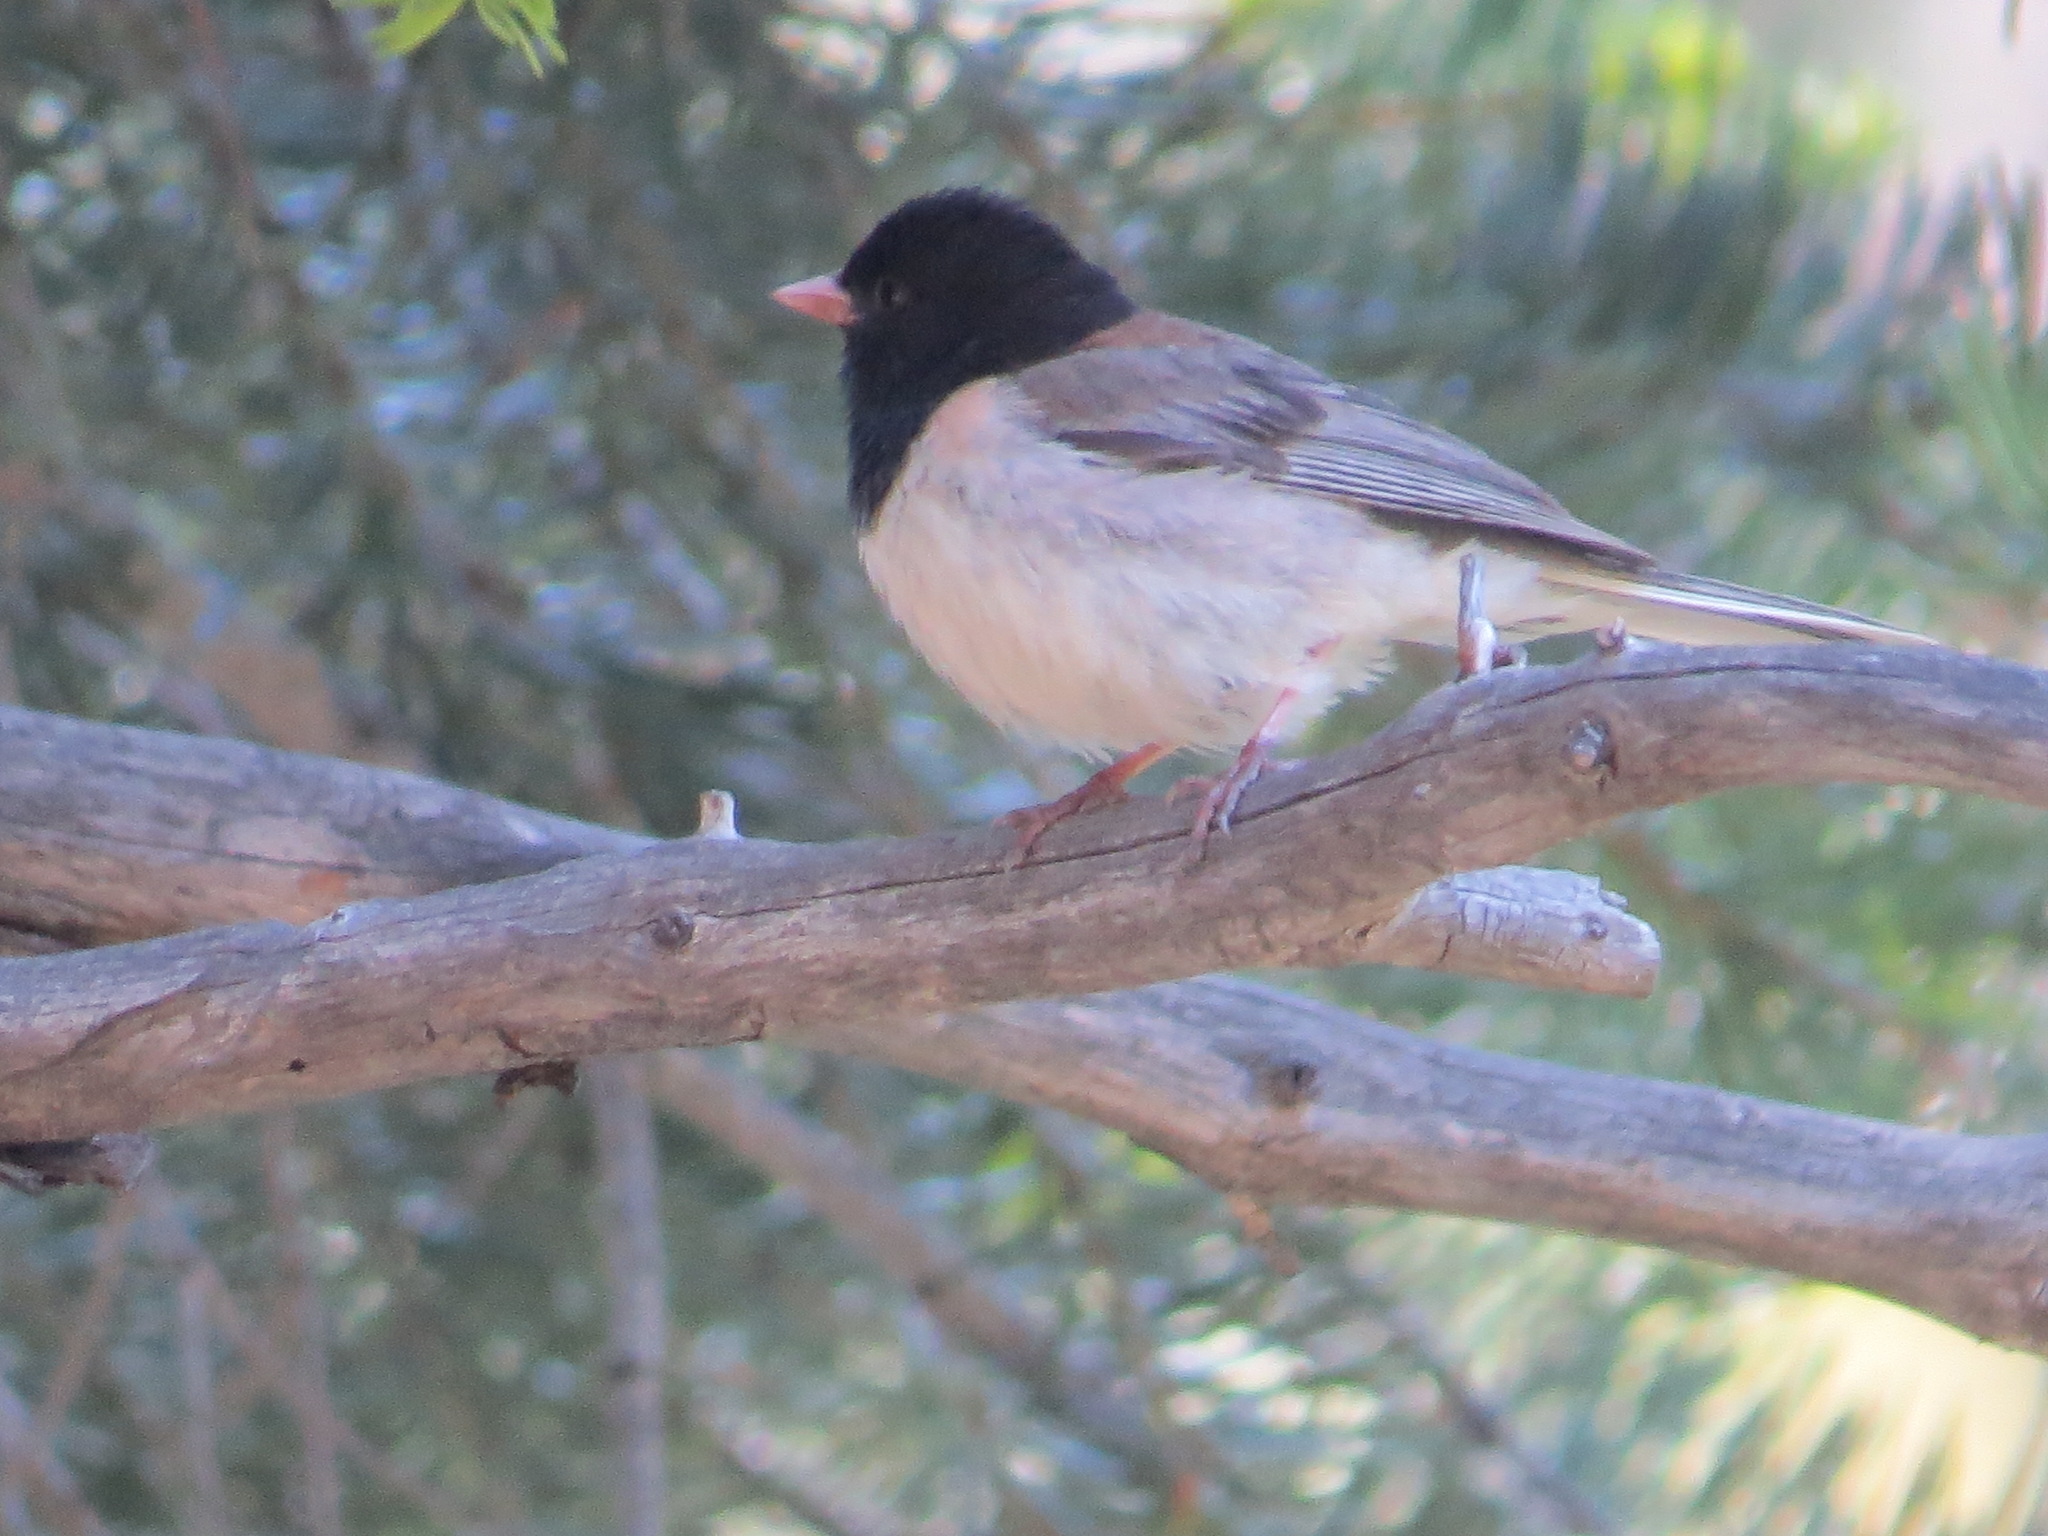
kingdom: Animalia
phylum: Chordata
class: Aves
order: Passeriformes
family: Passerellidae
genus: Junco
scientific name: Junco hyemalis
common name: Dark-eyed junco
